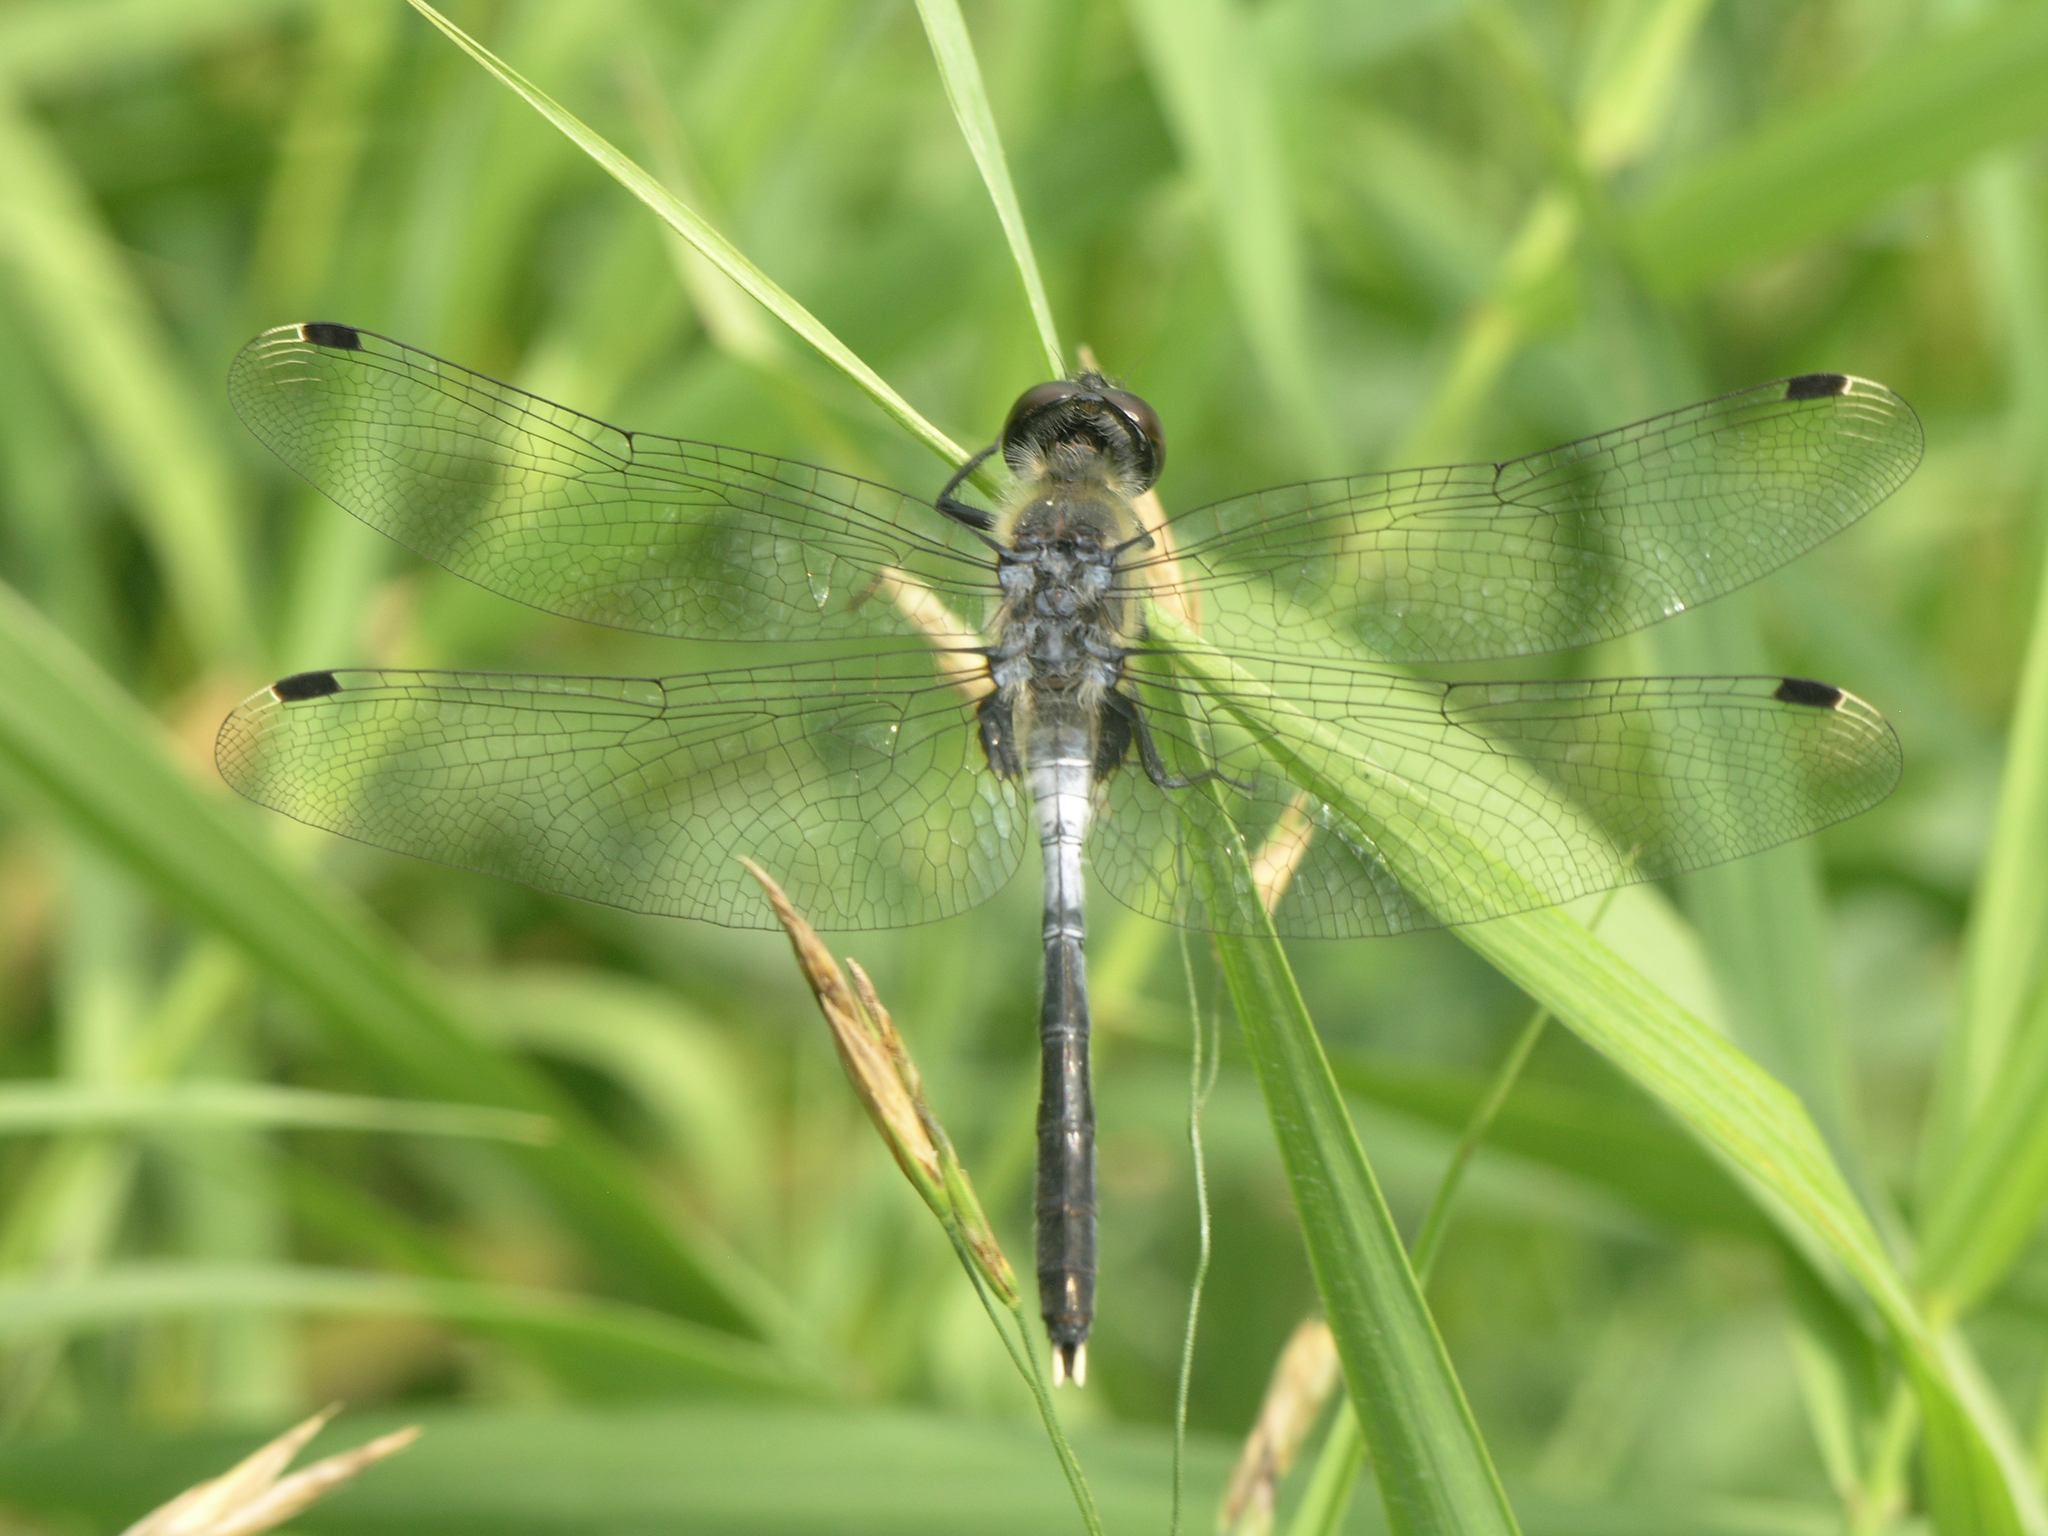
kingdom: Animalia
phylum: Arthropoda
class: Insecta
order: Odonata
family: Libellulidae
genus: Leucorrhinia
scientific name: Leucorrhinia albifrons
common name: Dark whiteface
